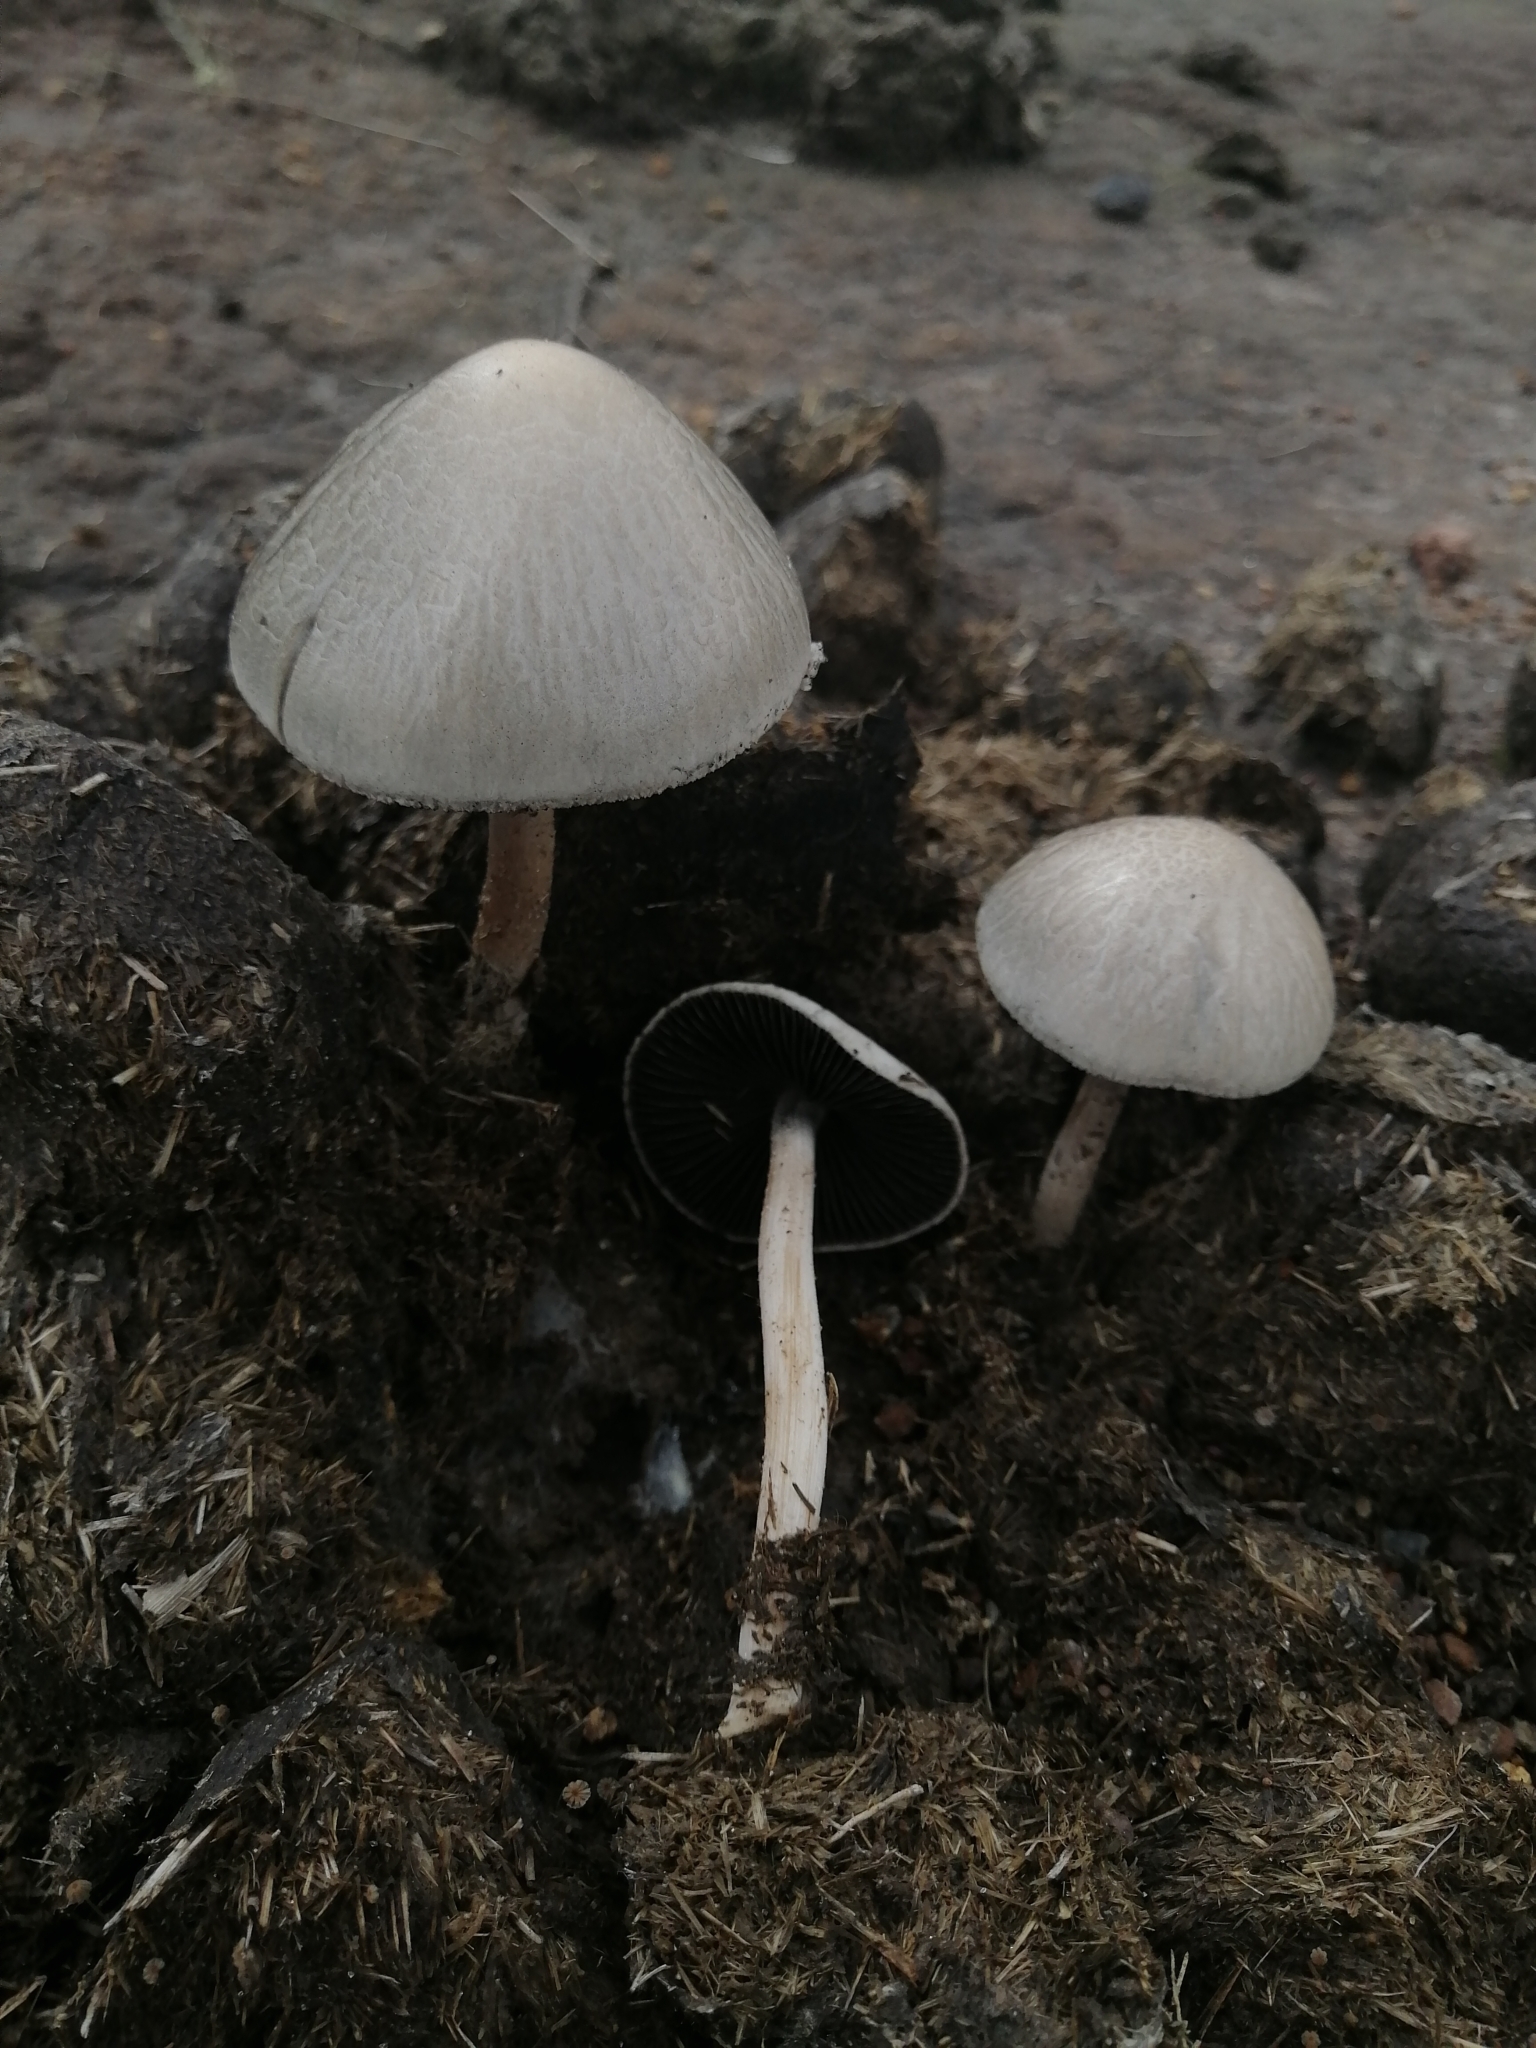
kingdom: Fungi
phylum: Basidiomycota
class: Agaricomycetes
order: Agaricales
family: Bolbitiaceae
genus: Panaeolus
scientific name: Panaeolus antillarum
